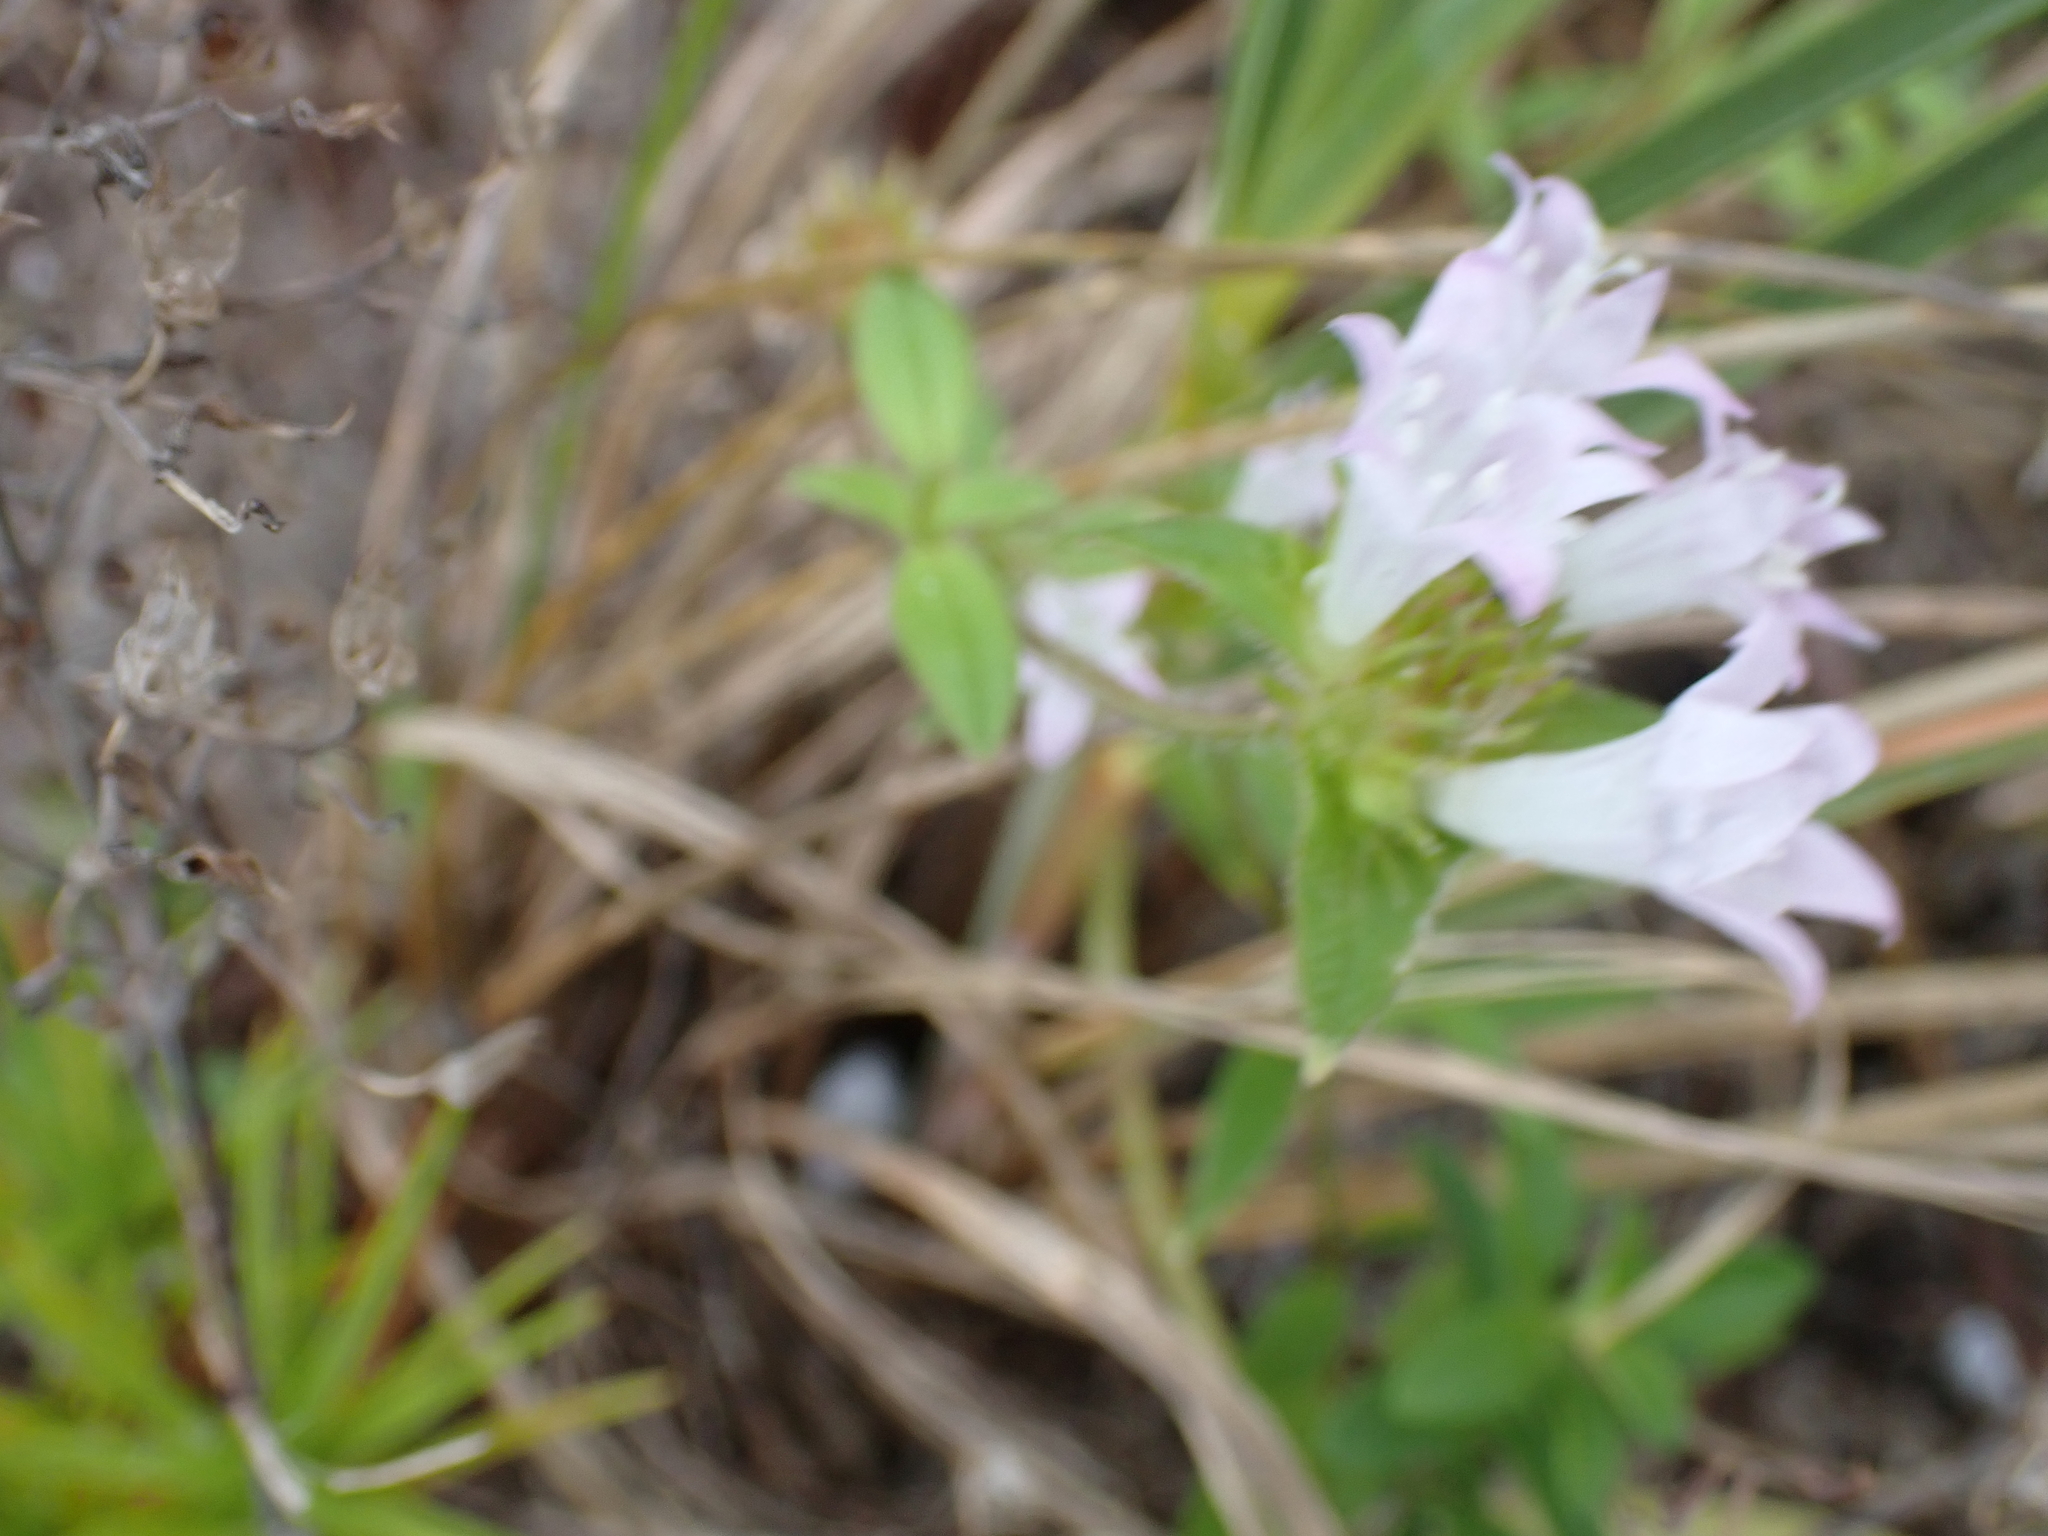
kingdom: Plantae
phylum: Tracheophyta
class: Magnoliopsida
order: Gentianales
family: Rubiaceae
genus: Richardia
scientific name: Richardia grandiflora
